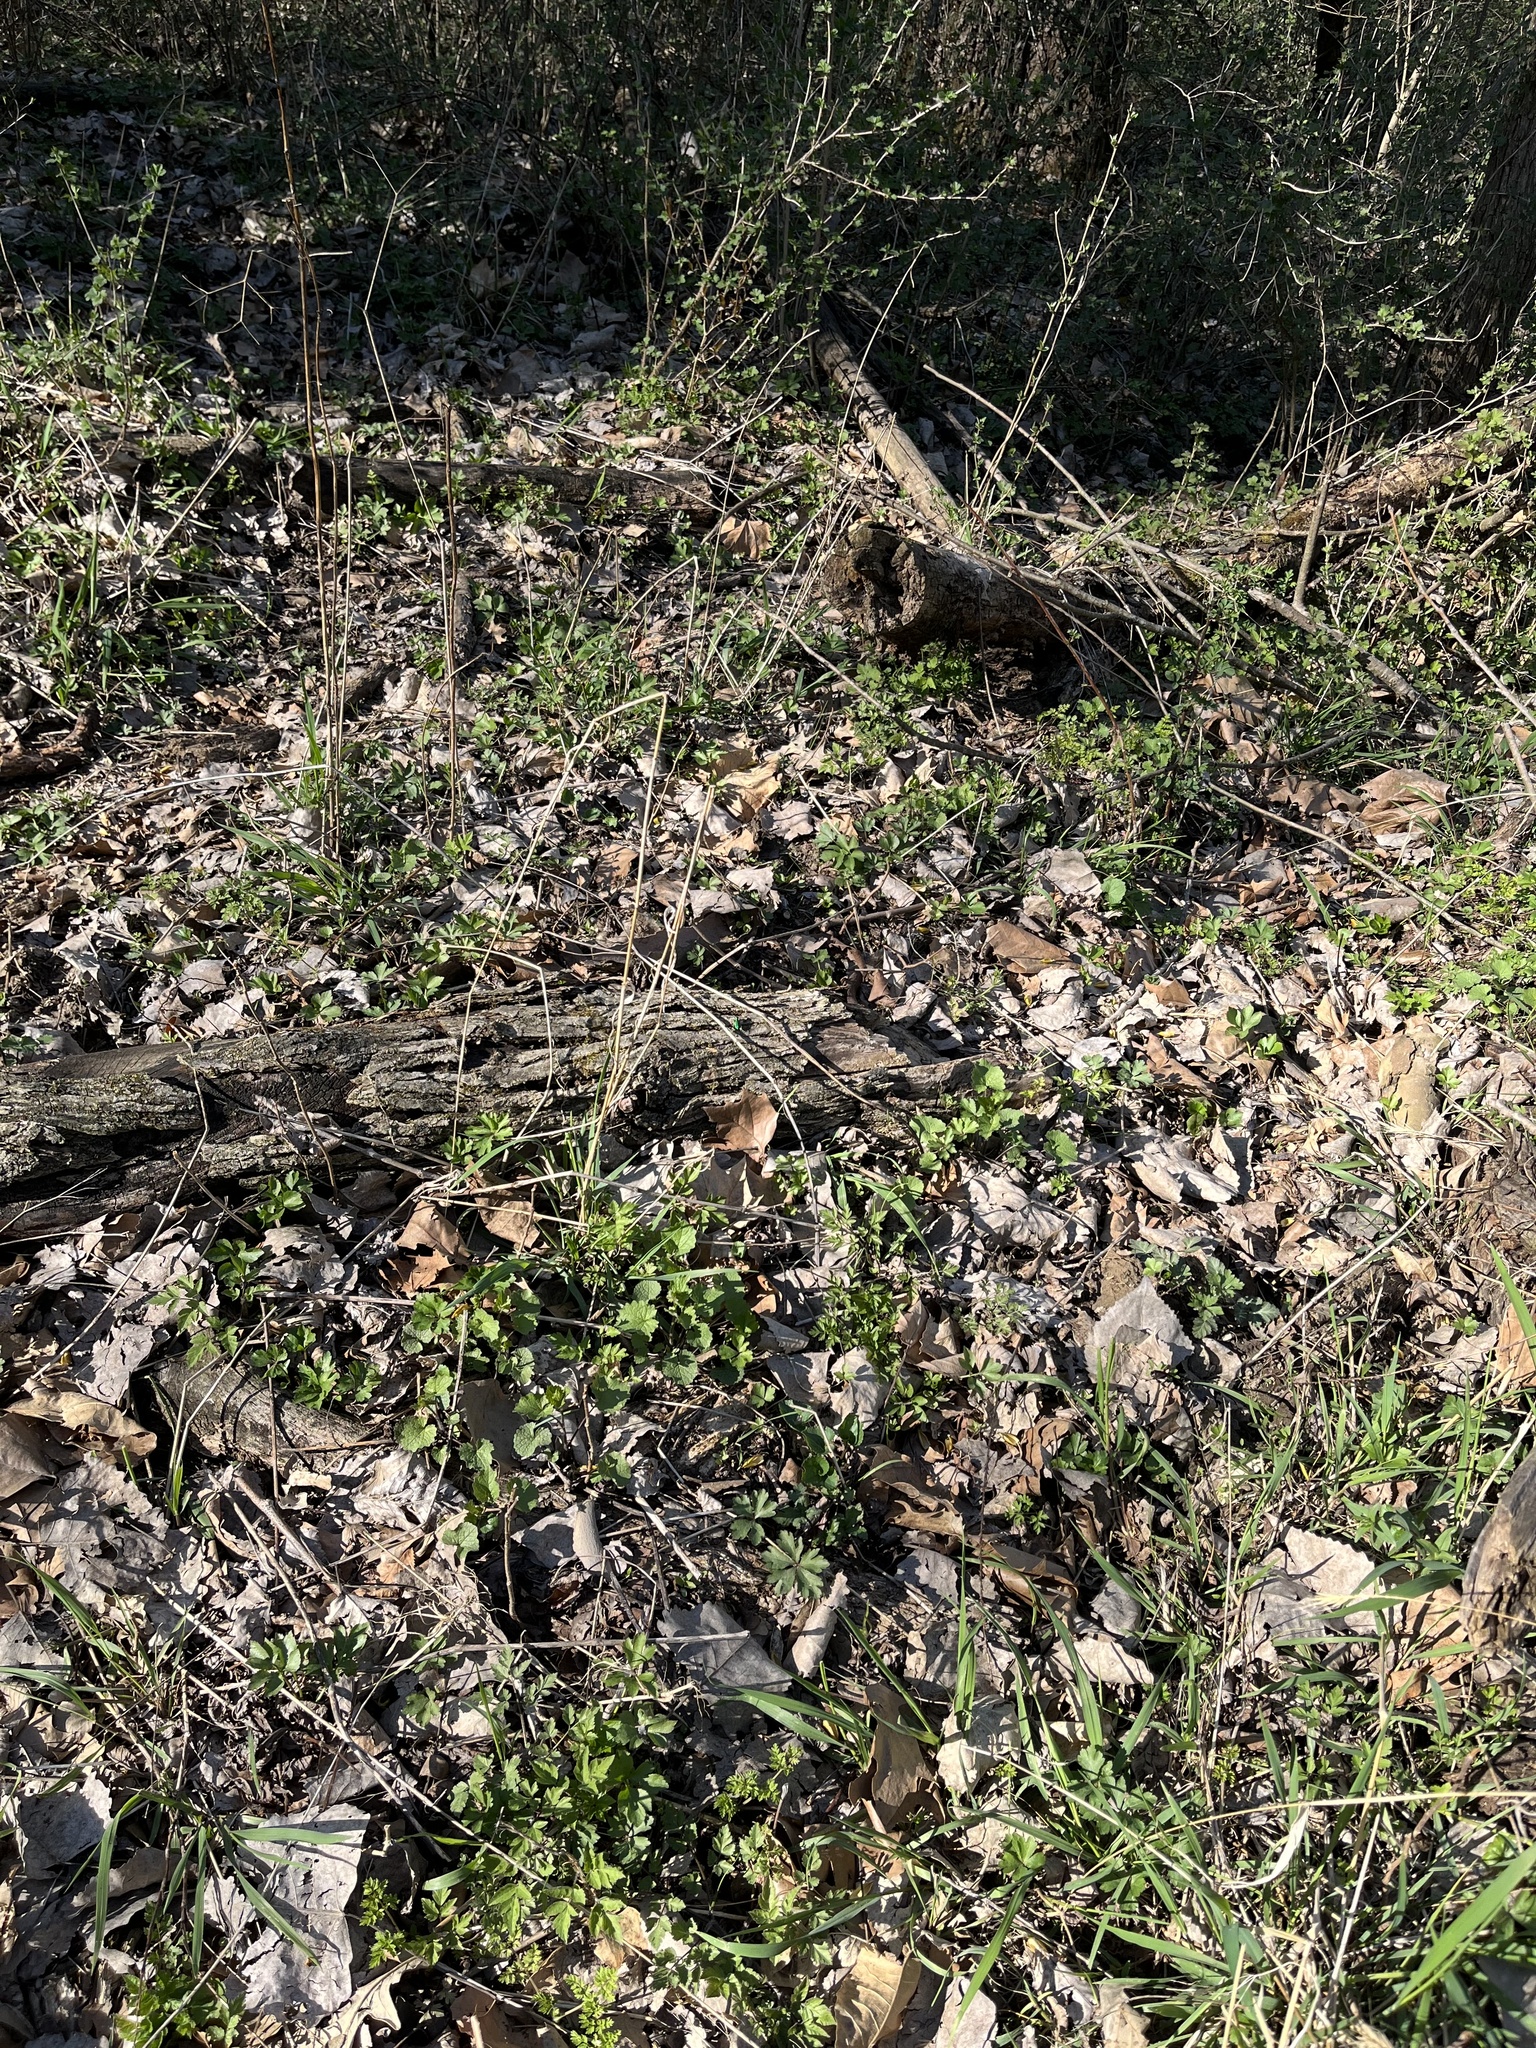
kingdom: Animalia
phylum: Arthropoda
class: Insecta
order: Coleoptera
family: Carabidae
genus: Cicindela
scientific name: Cicindela sexguttata
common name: Six-spotted tiger beetle
